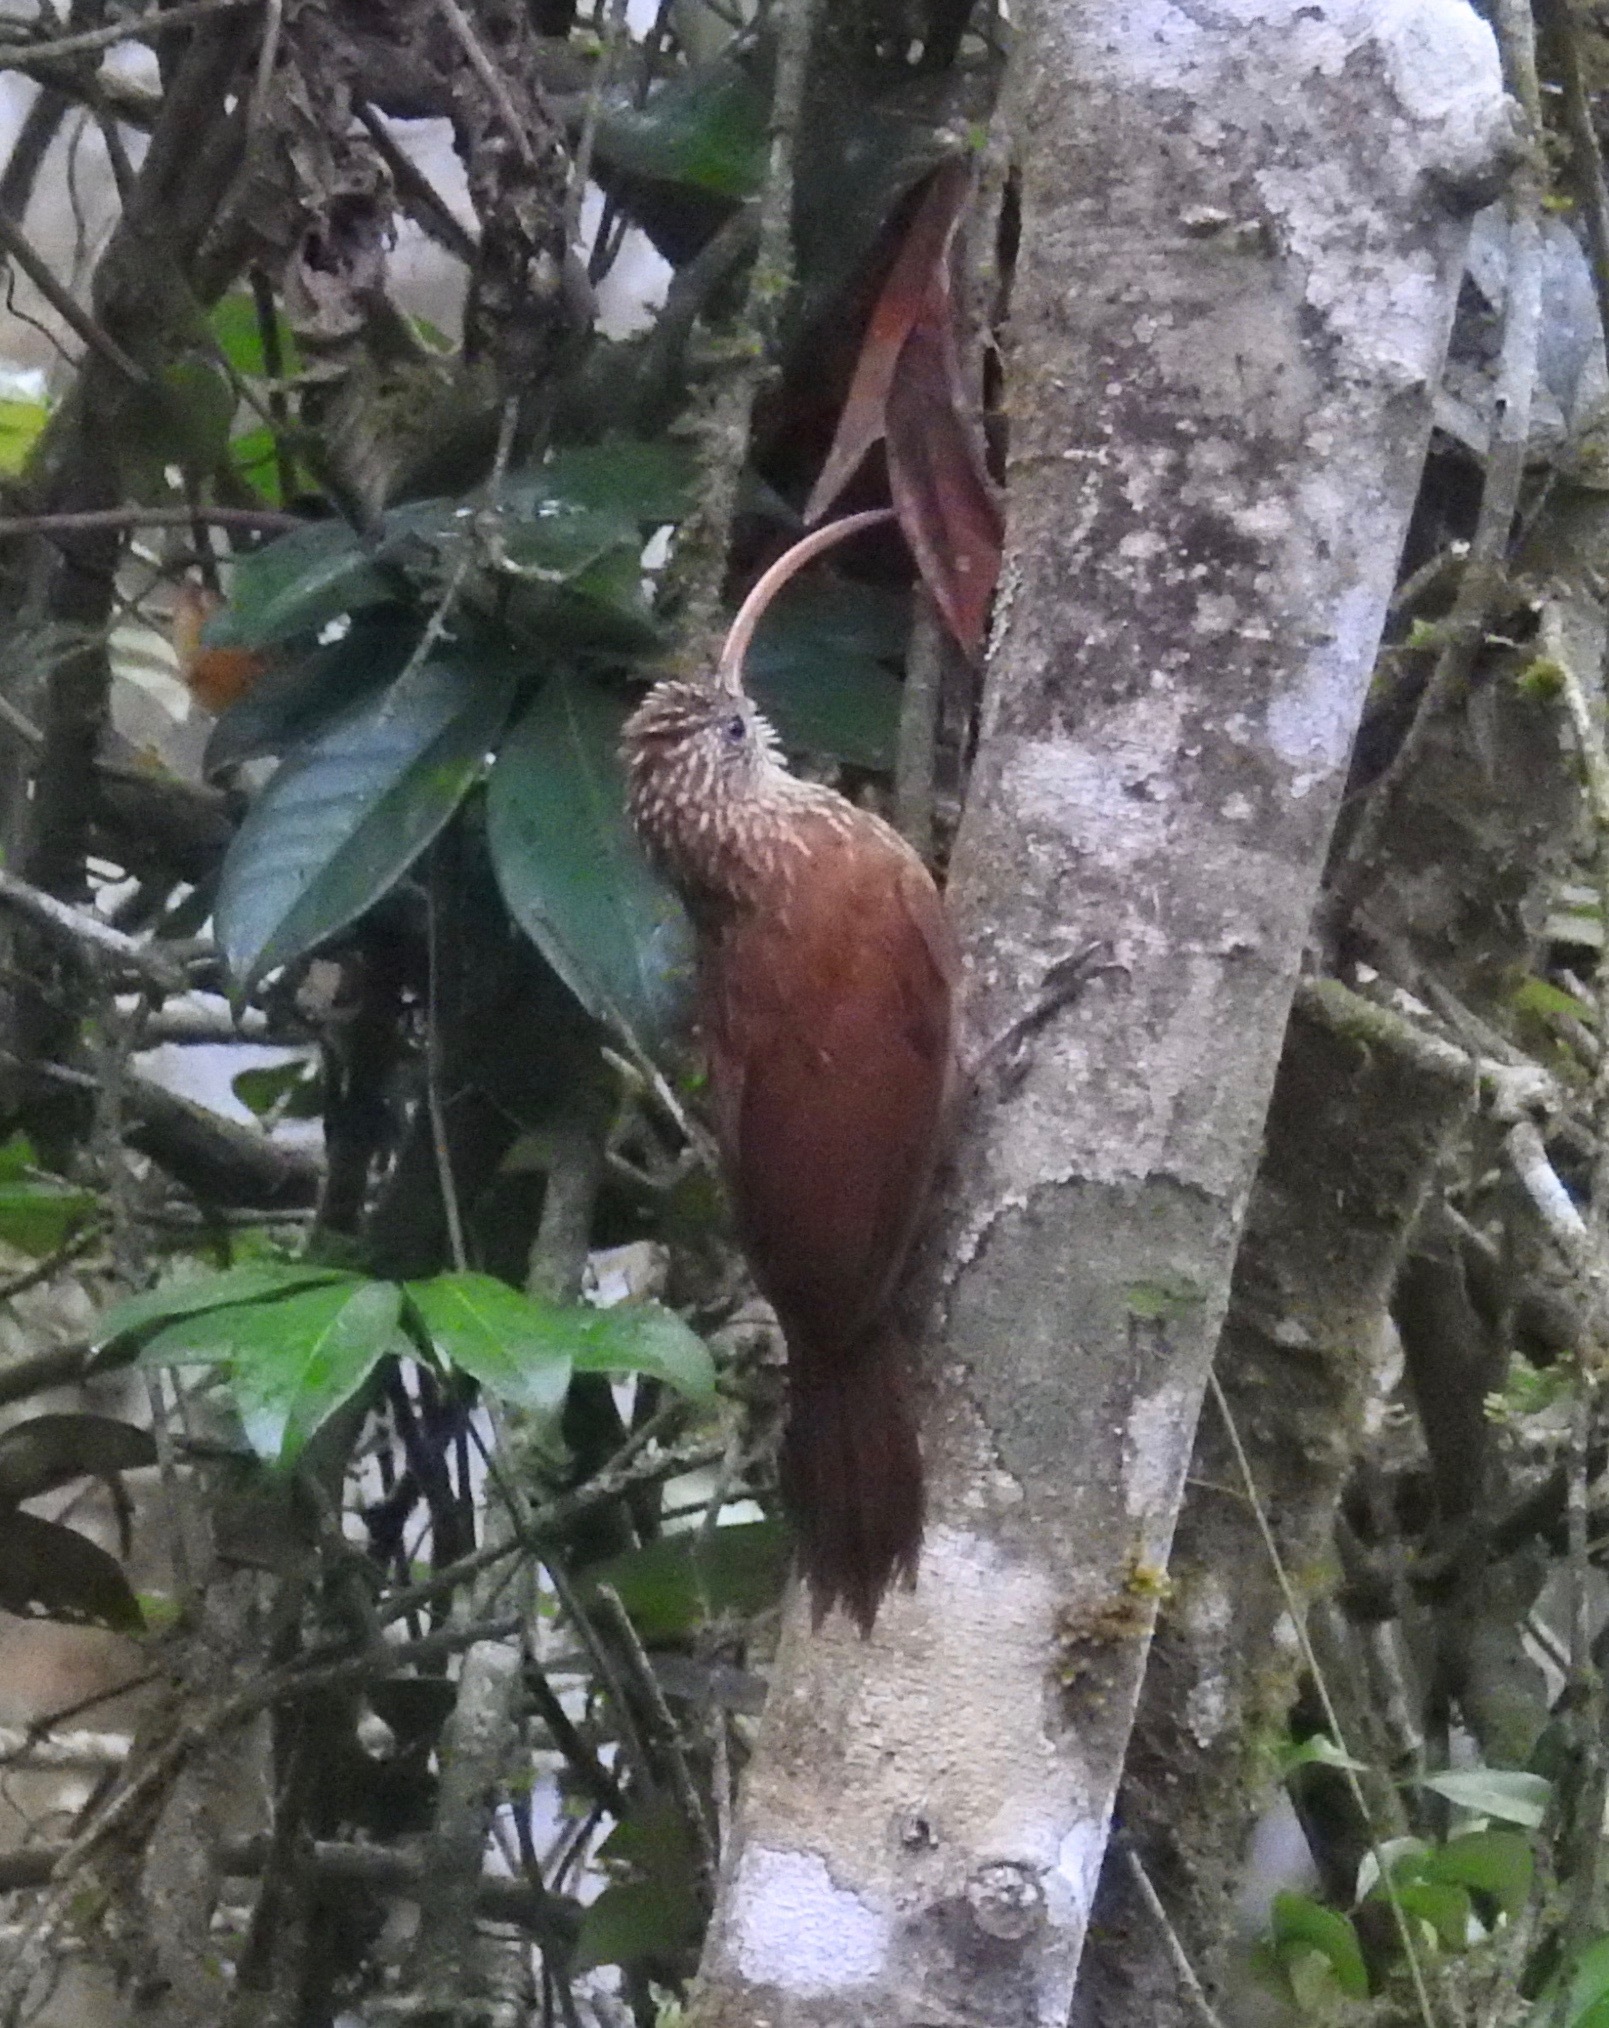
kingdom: Animalia
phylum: Chordata
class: Aves
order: Passeriformes
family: Furnariidae
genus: Campylorhamphus
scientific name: Campylorhamphus trochilirostris
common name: Red-billed scythebill
